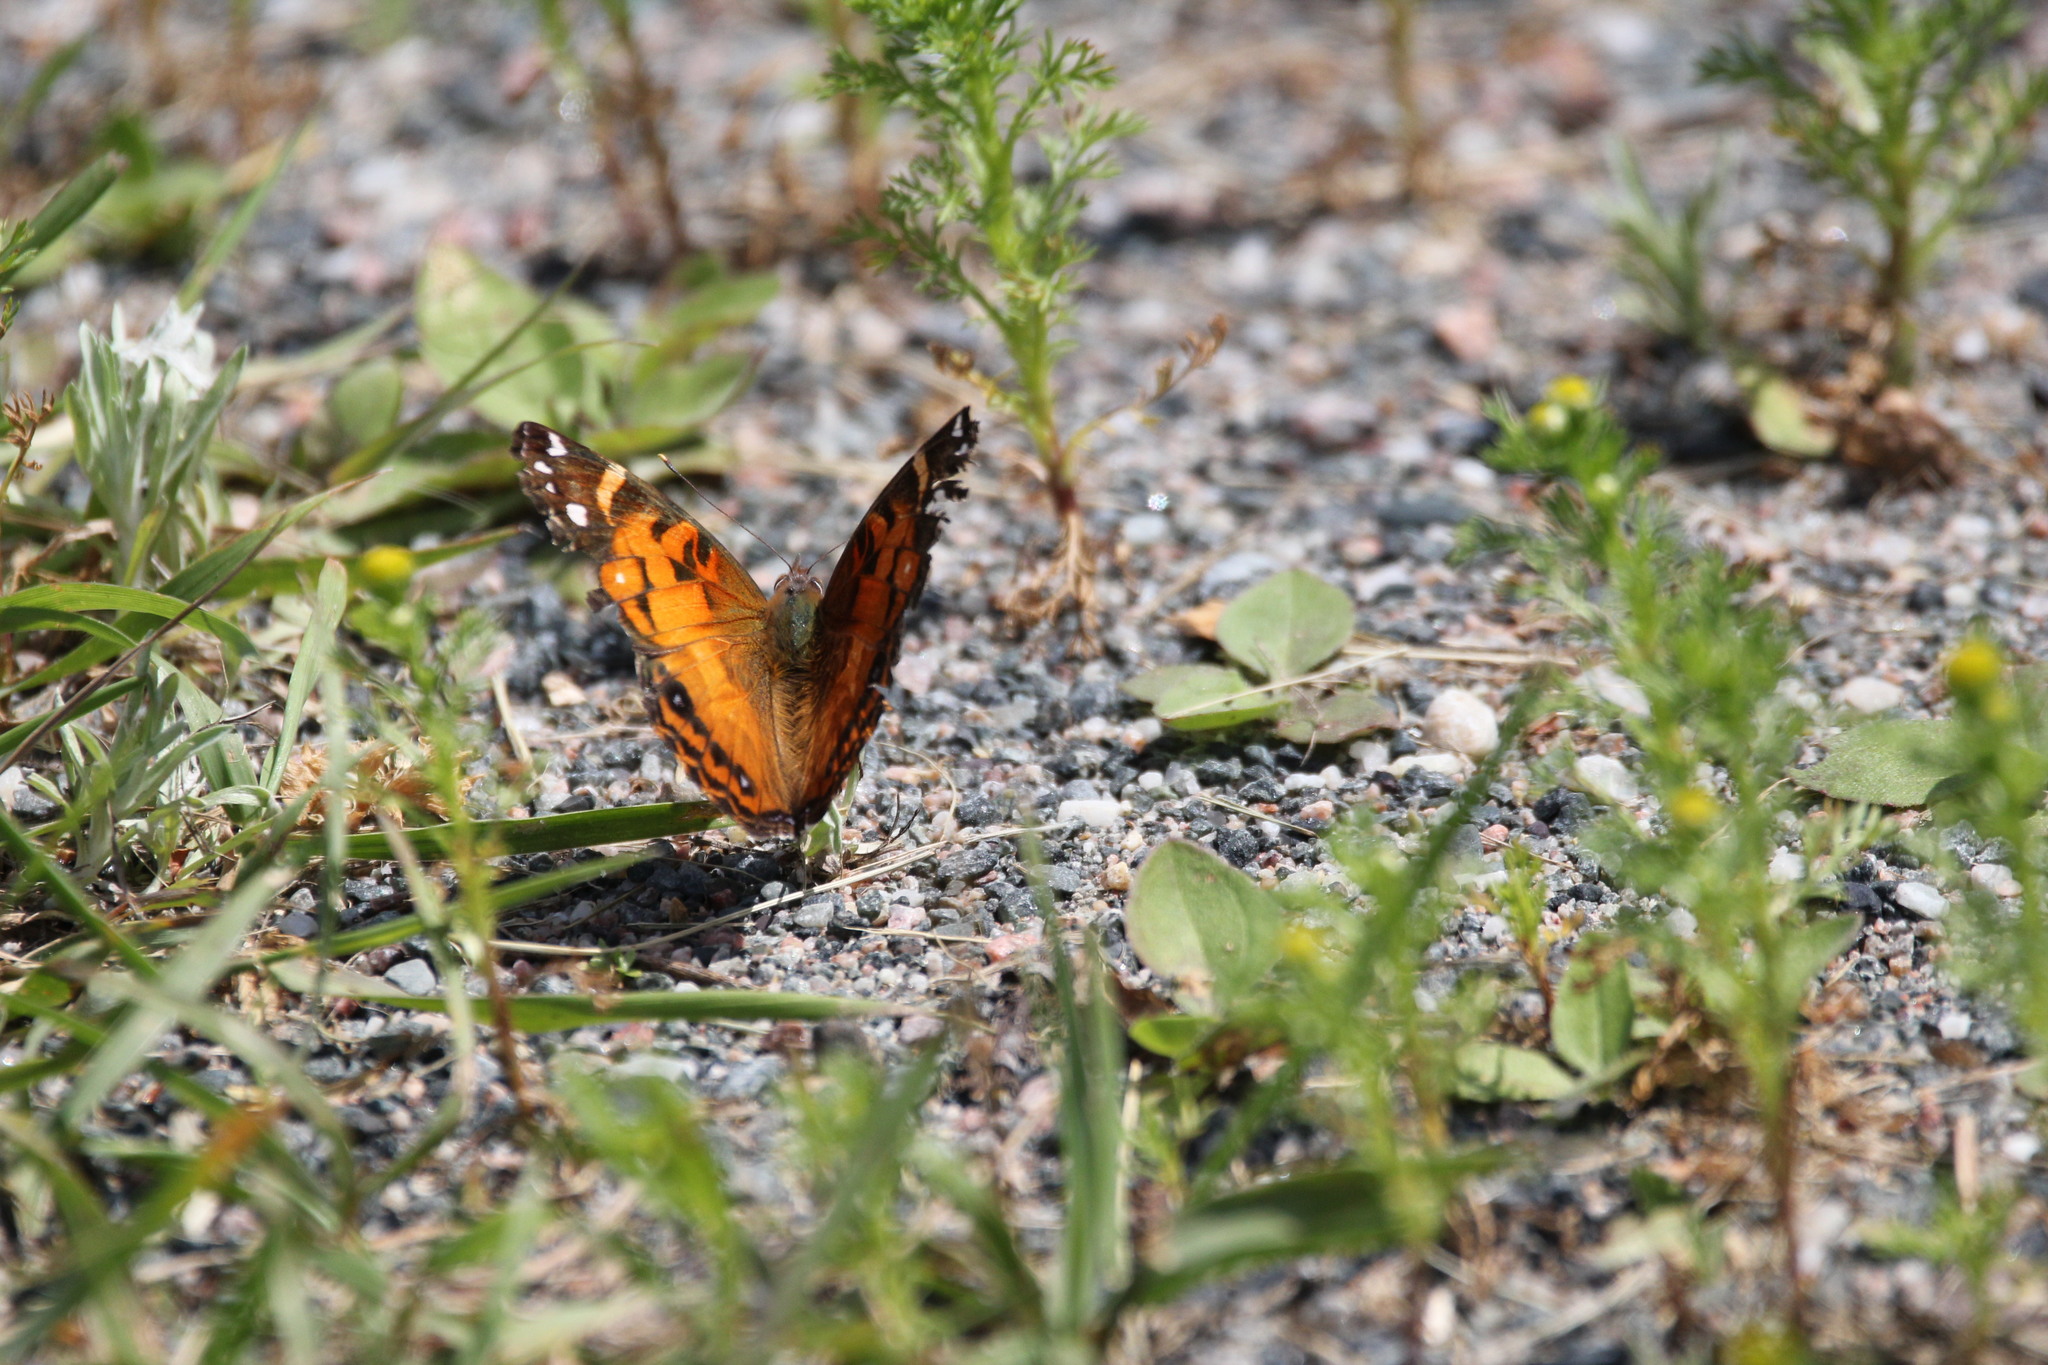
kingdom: Animalia
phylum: Arthropoda
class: Insecta
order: Lepidoptera
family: Nymphalidae
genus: Vanessa
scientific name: Vanessa virginiensis
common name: American lady
